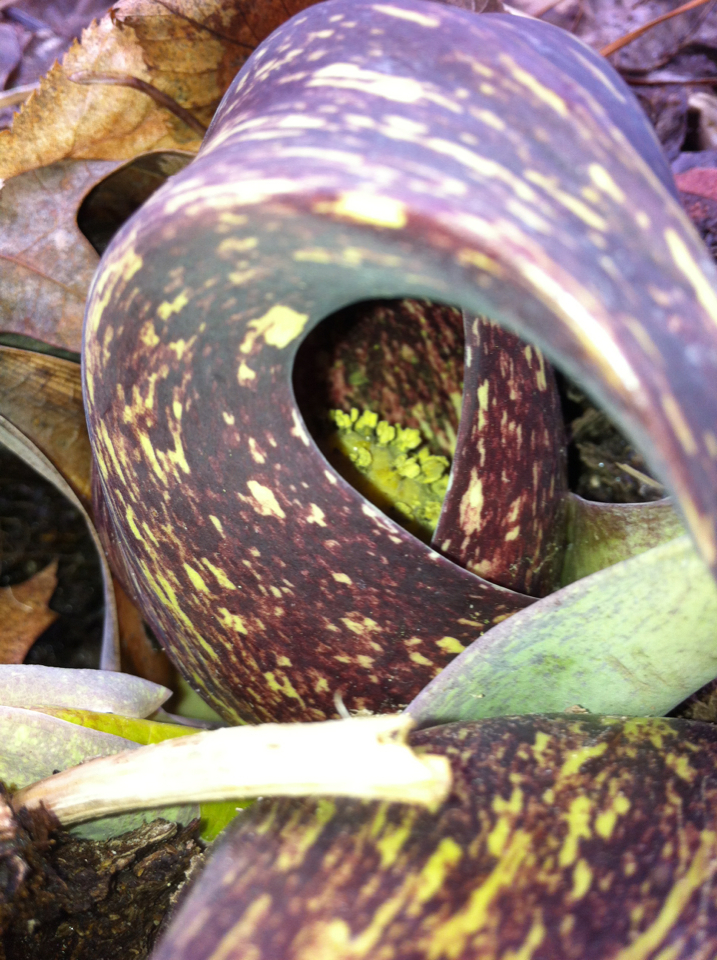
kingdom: Plantae
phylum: Tracheophyta
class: Liliopsida
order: Alismatales
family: Araceae
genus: Symplocarpus
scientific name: Symplocarpus foetidus
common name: Eastern skunk cabbage
